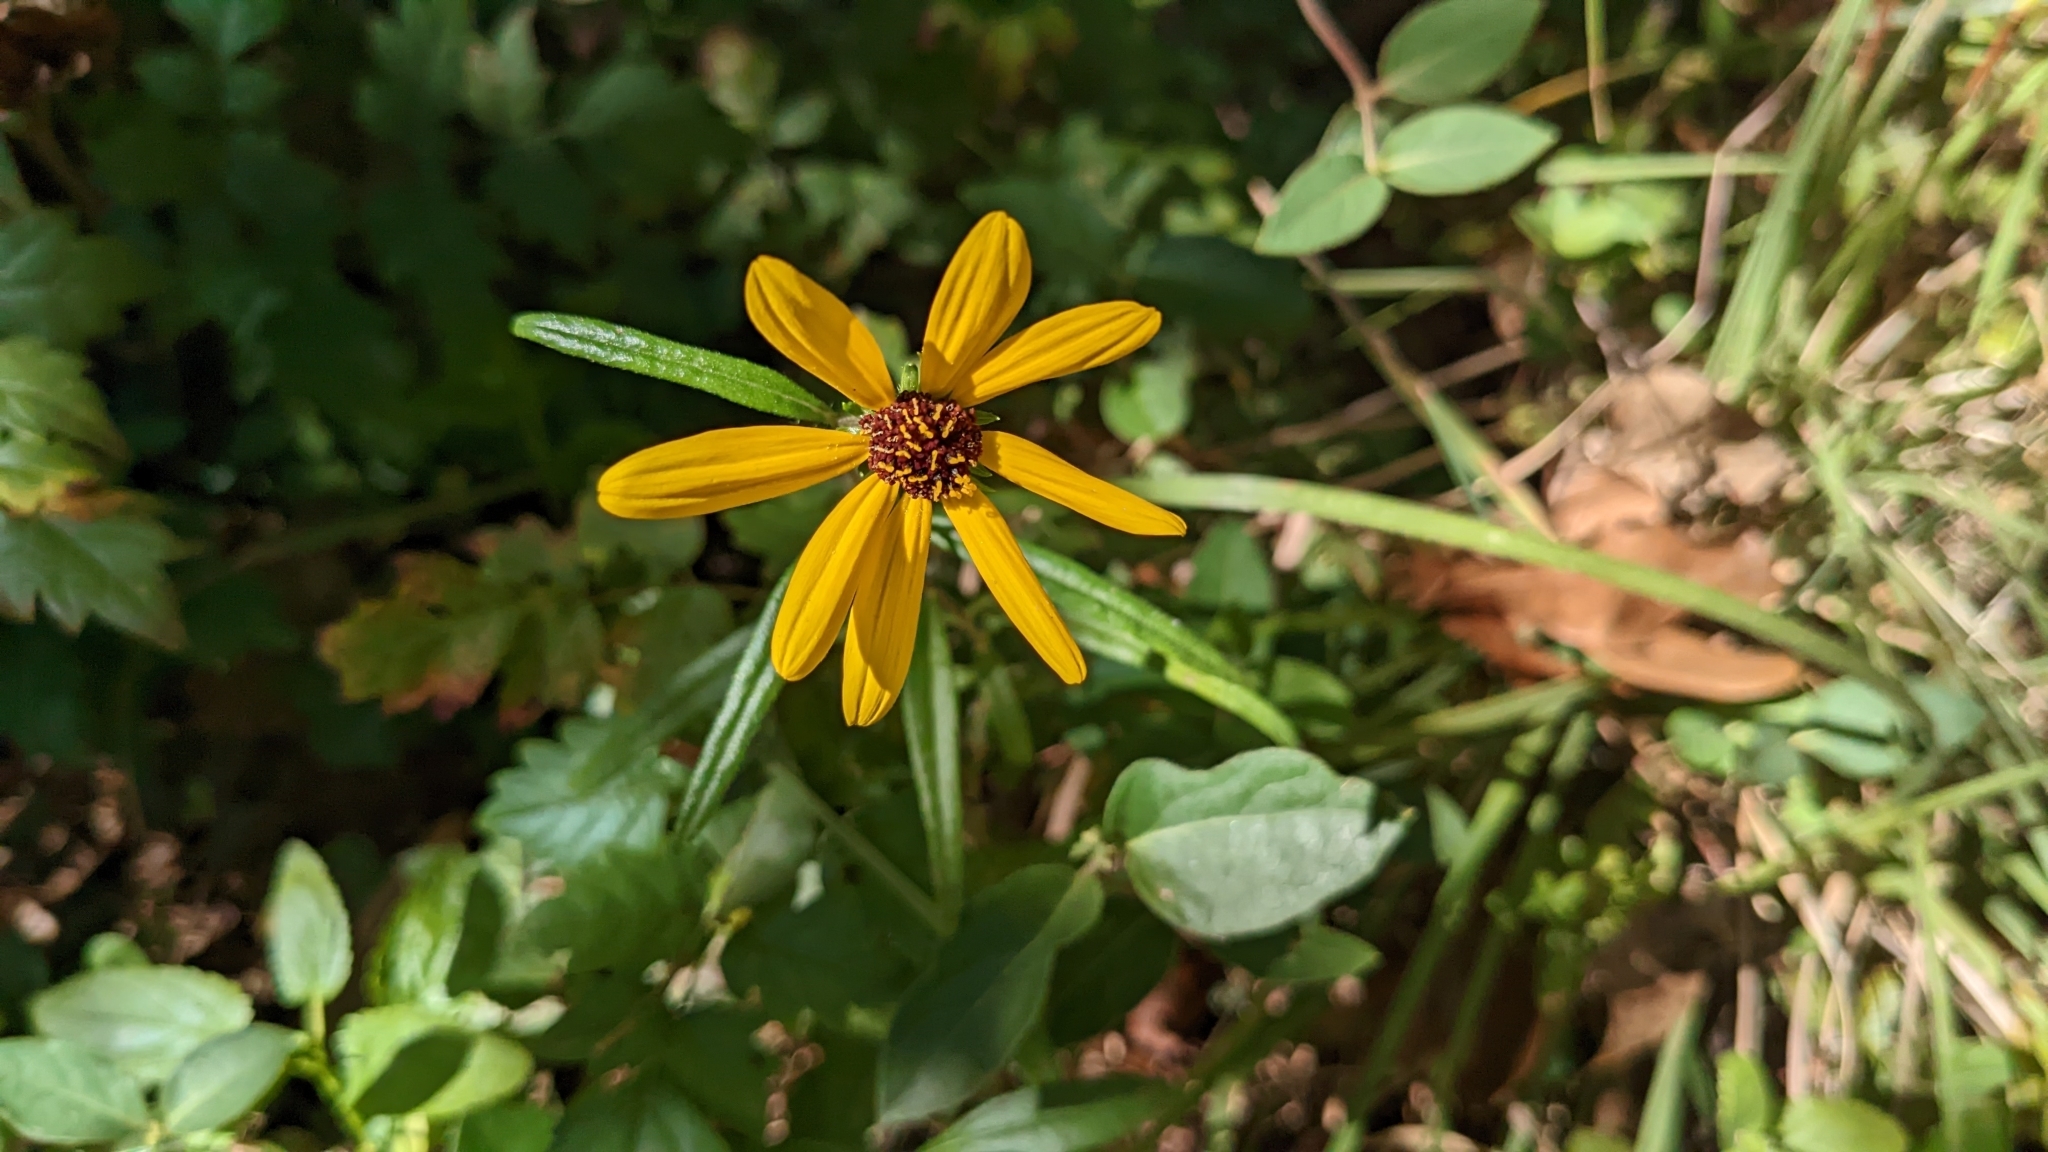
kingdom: Plantae
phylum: Tracheophyta
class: Magnoliopsida
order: Asterales
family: Asteraceae
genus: Helianthus
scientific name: Helianthus angustifolius
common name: Swamp sunflower
